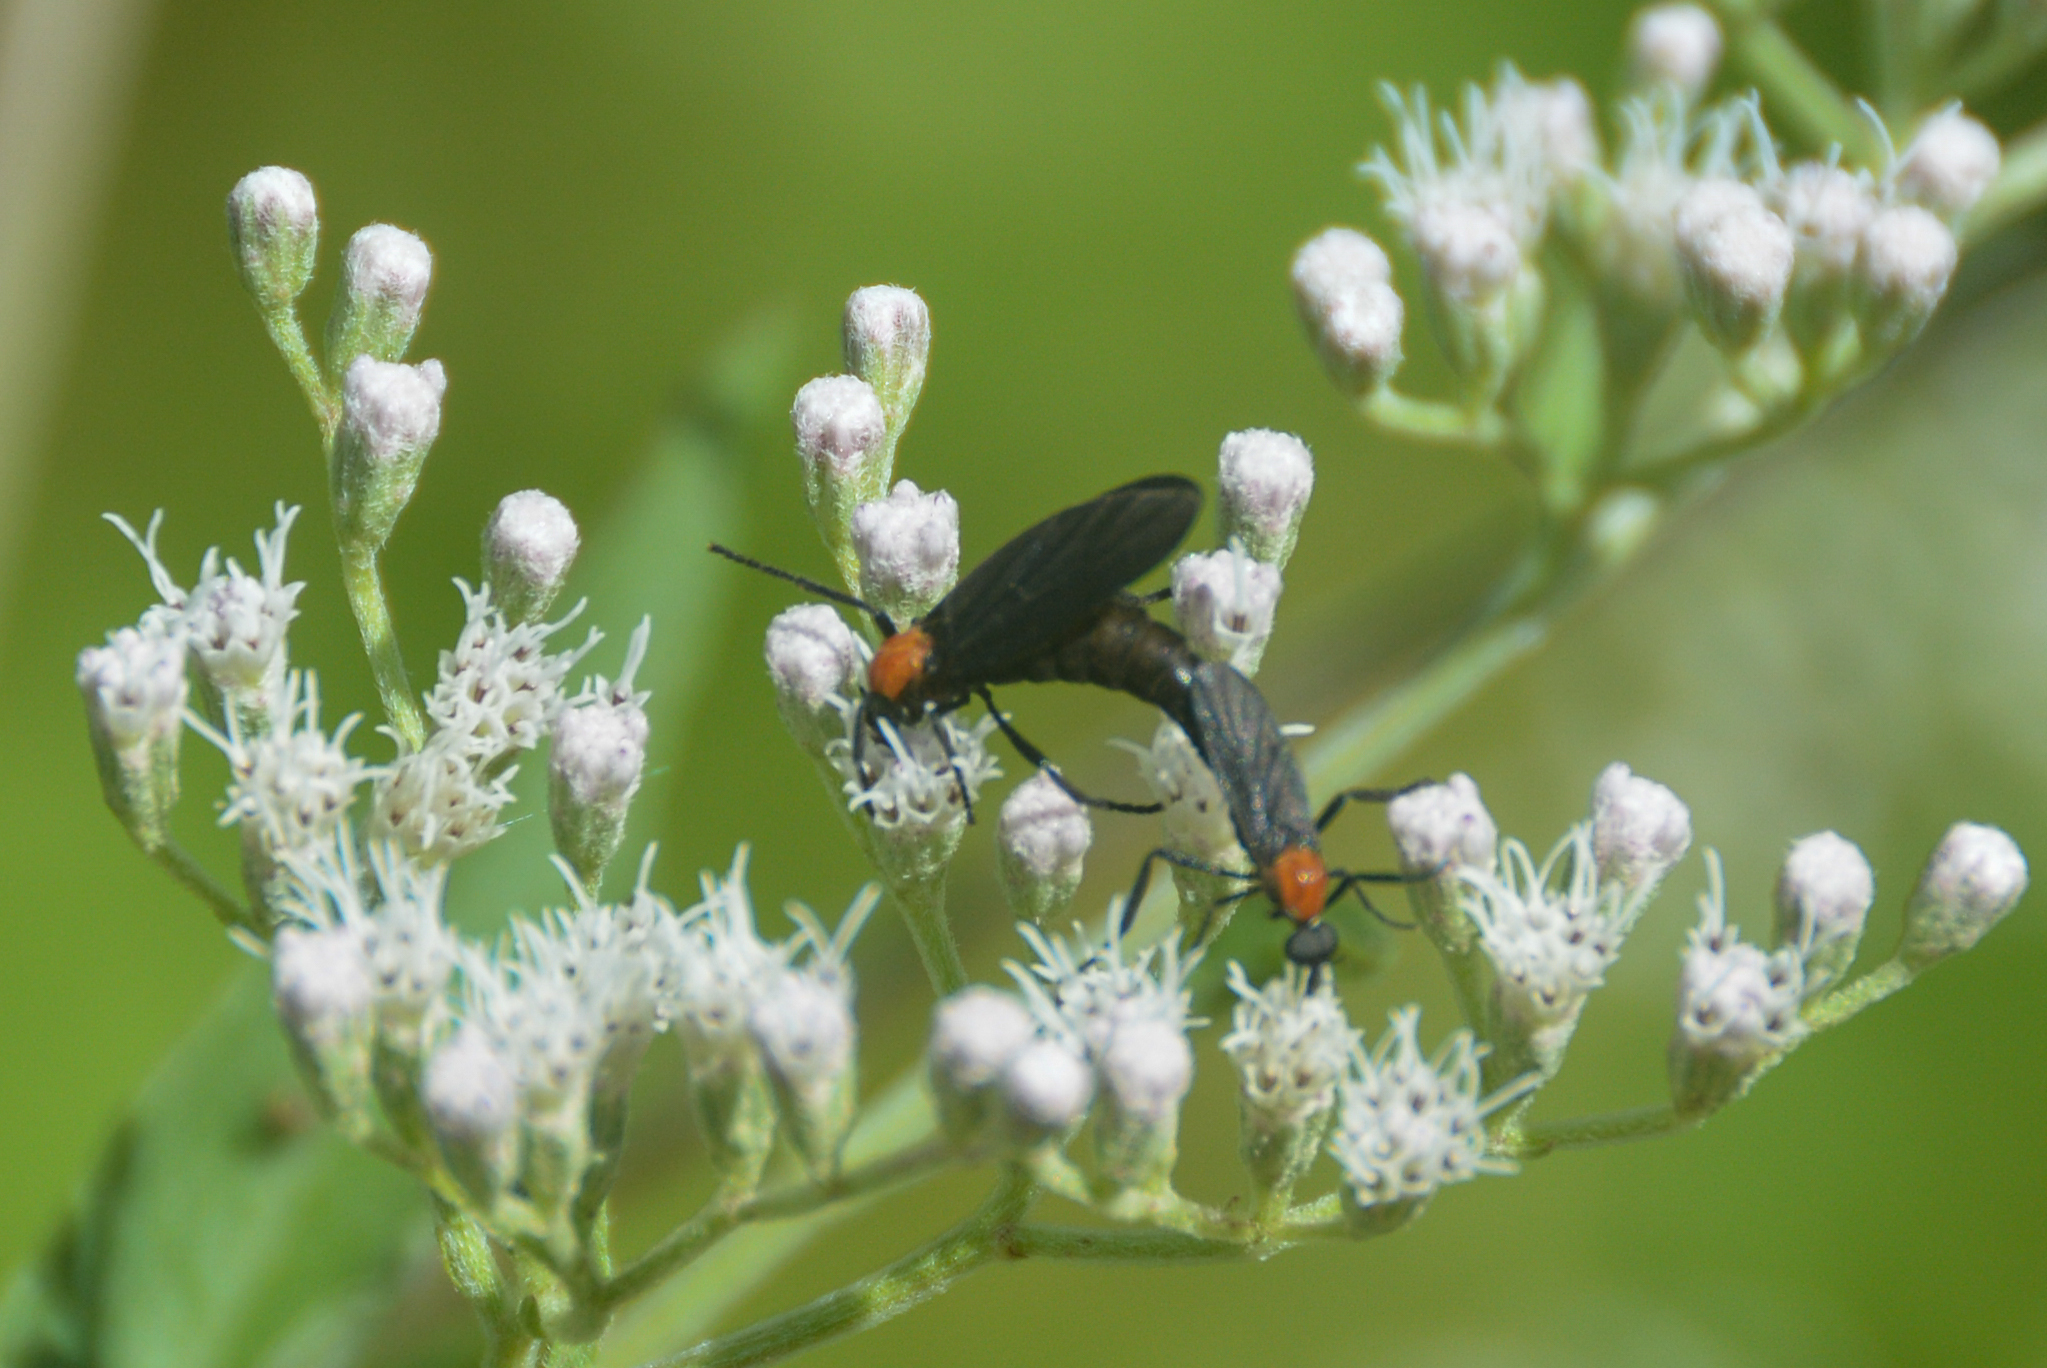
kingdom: Animalia
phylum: Arthropoda
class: Insecta
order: Diptera
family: Bibionidae
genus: Plecia
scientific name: Plecia nearctica
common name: March fly
